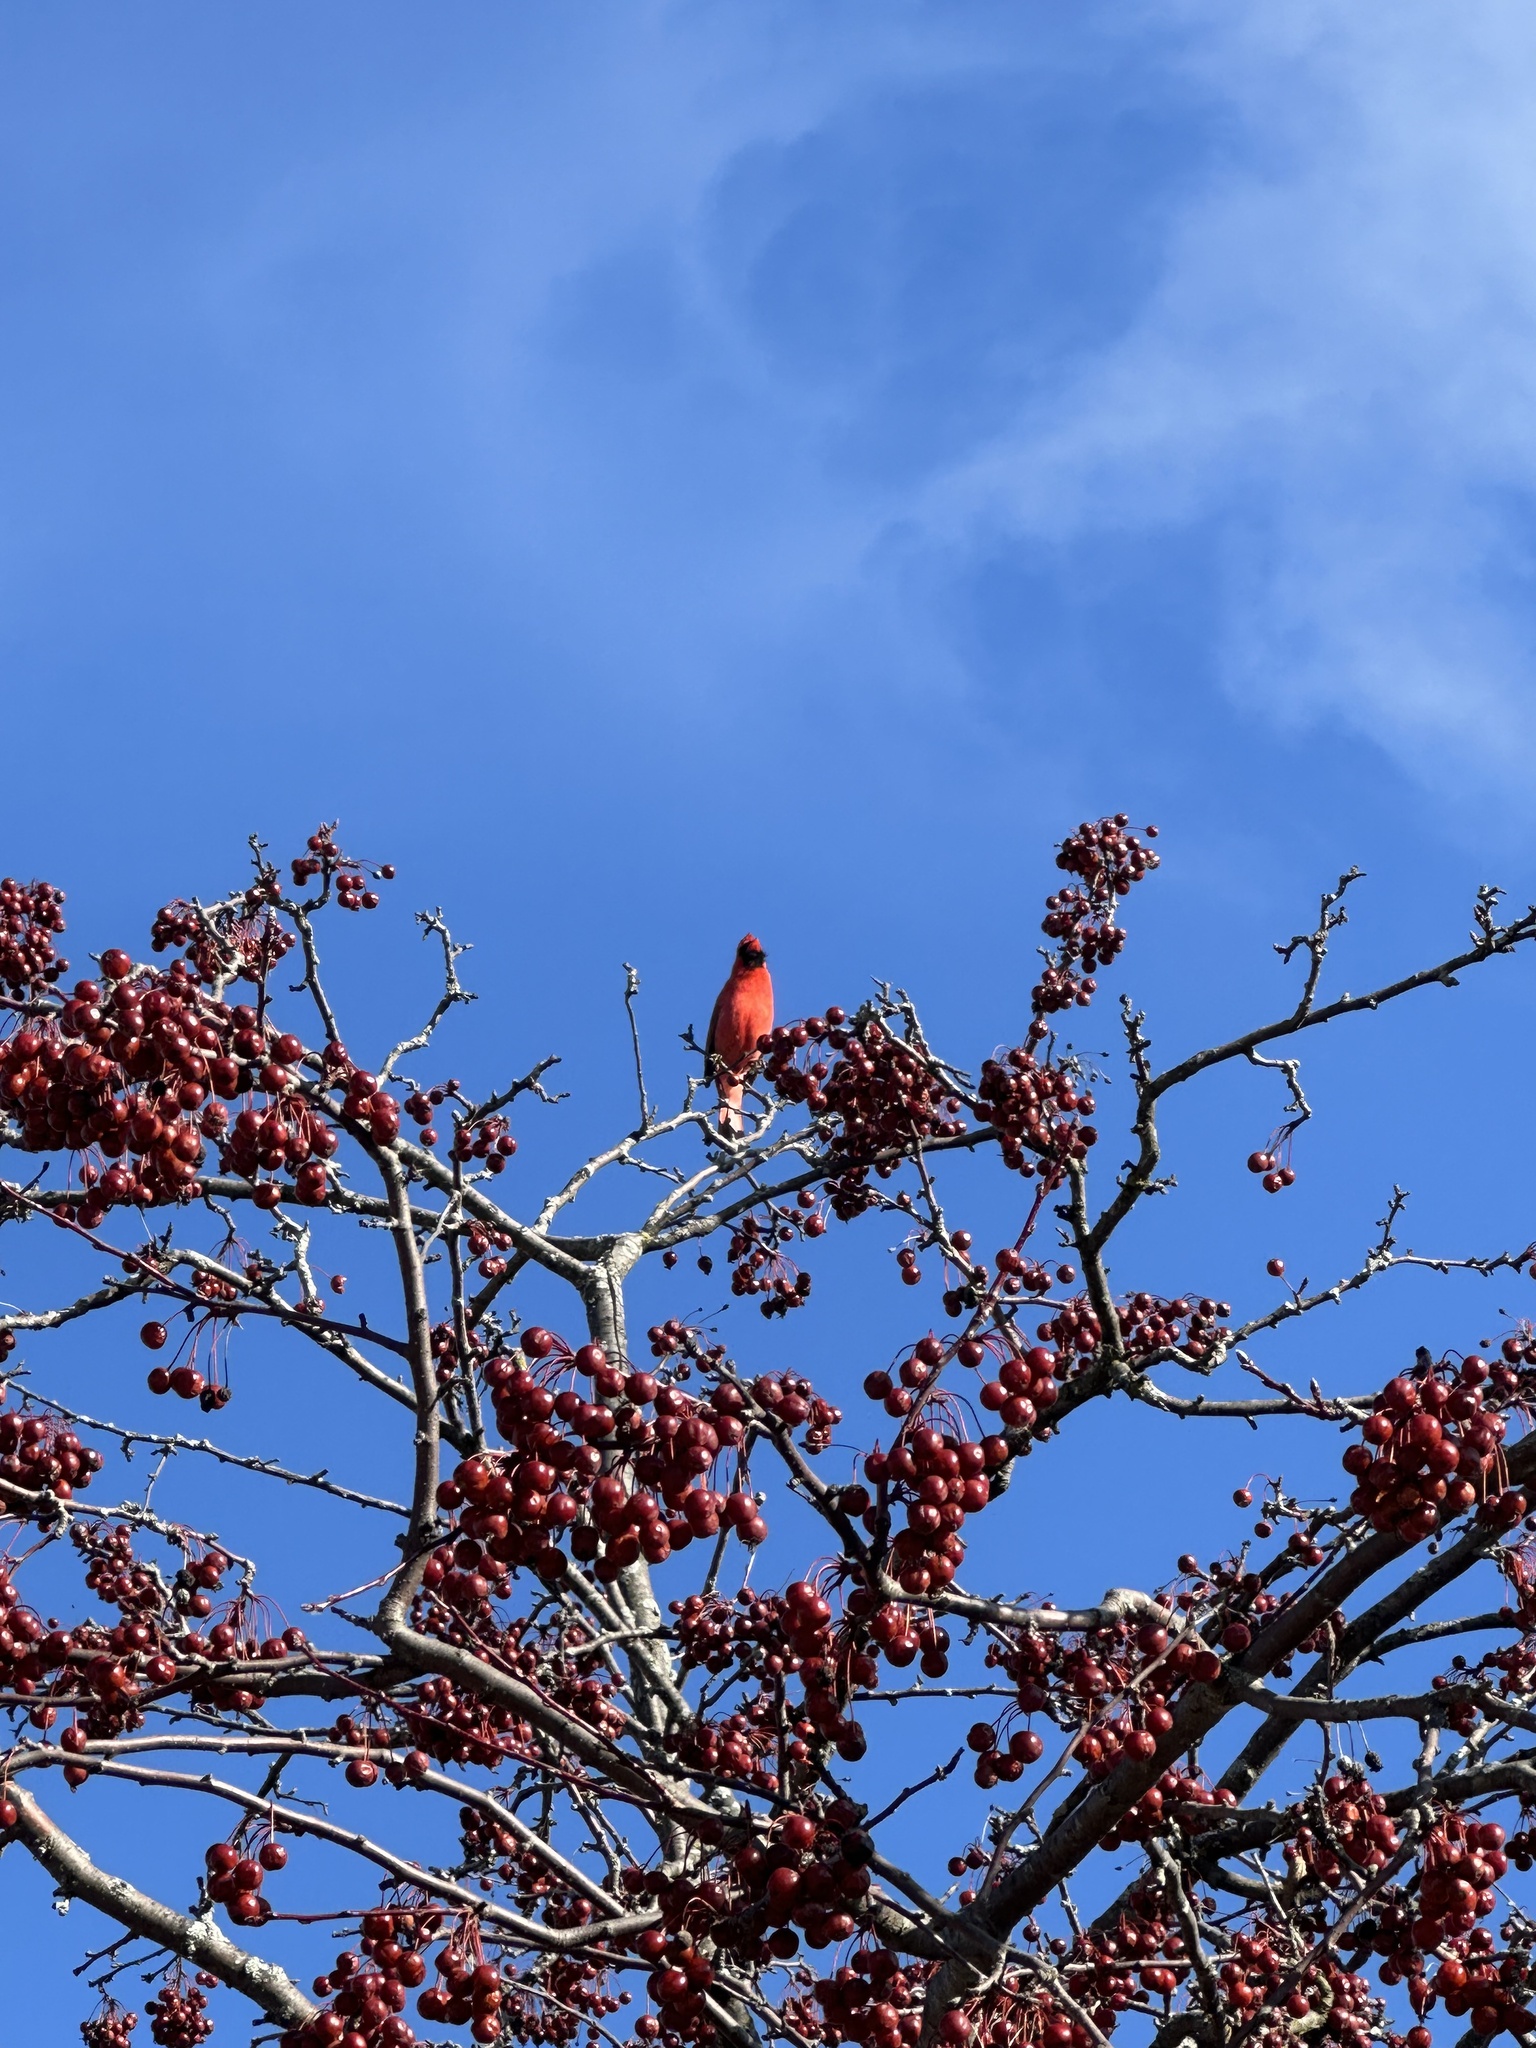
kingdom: Animalia
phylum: Chordata
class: Aves
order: Passeriformes
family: Cardinalidae
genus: Cardinalis
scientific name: Cardinalis cardinalis
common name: Northern cardinal
